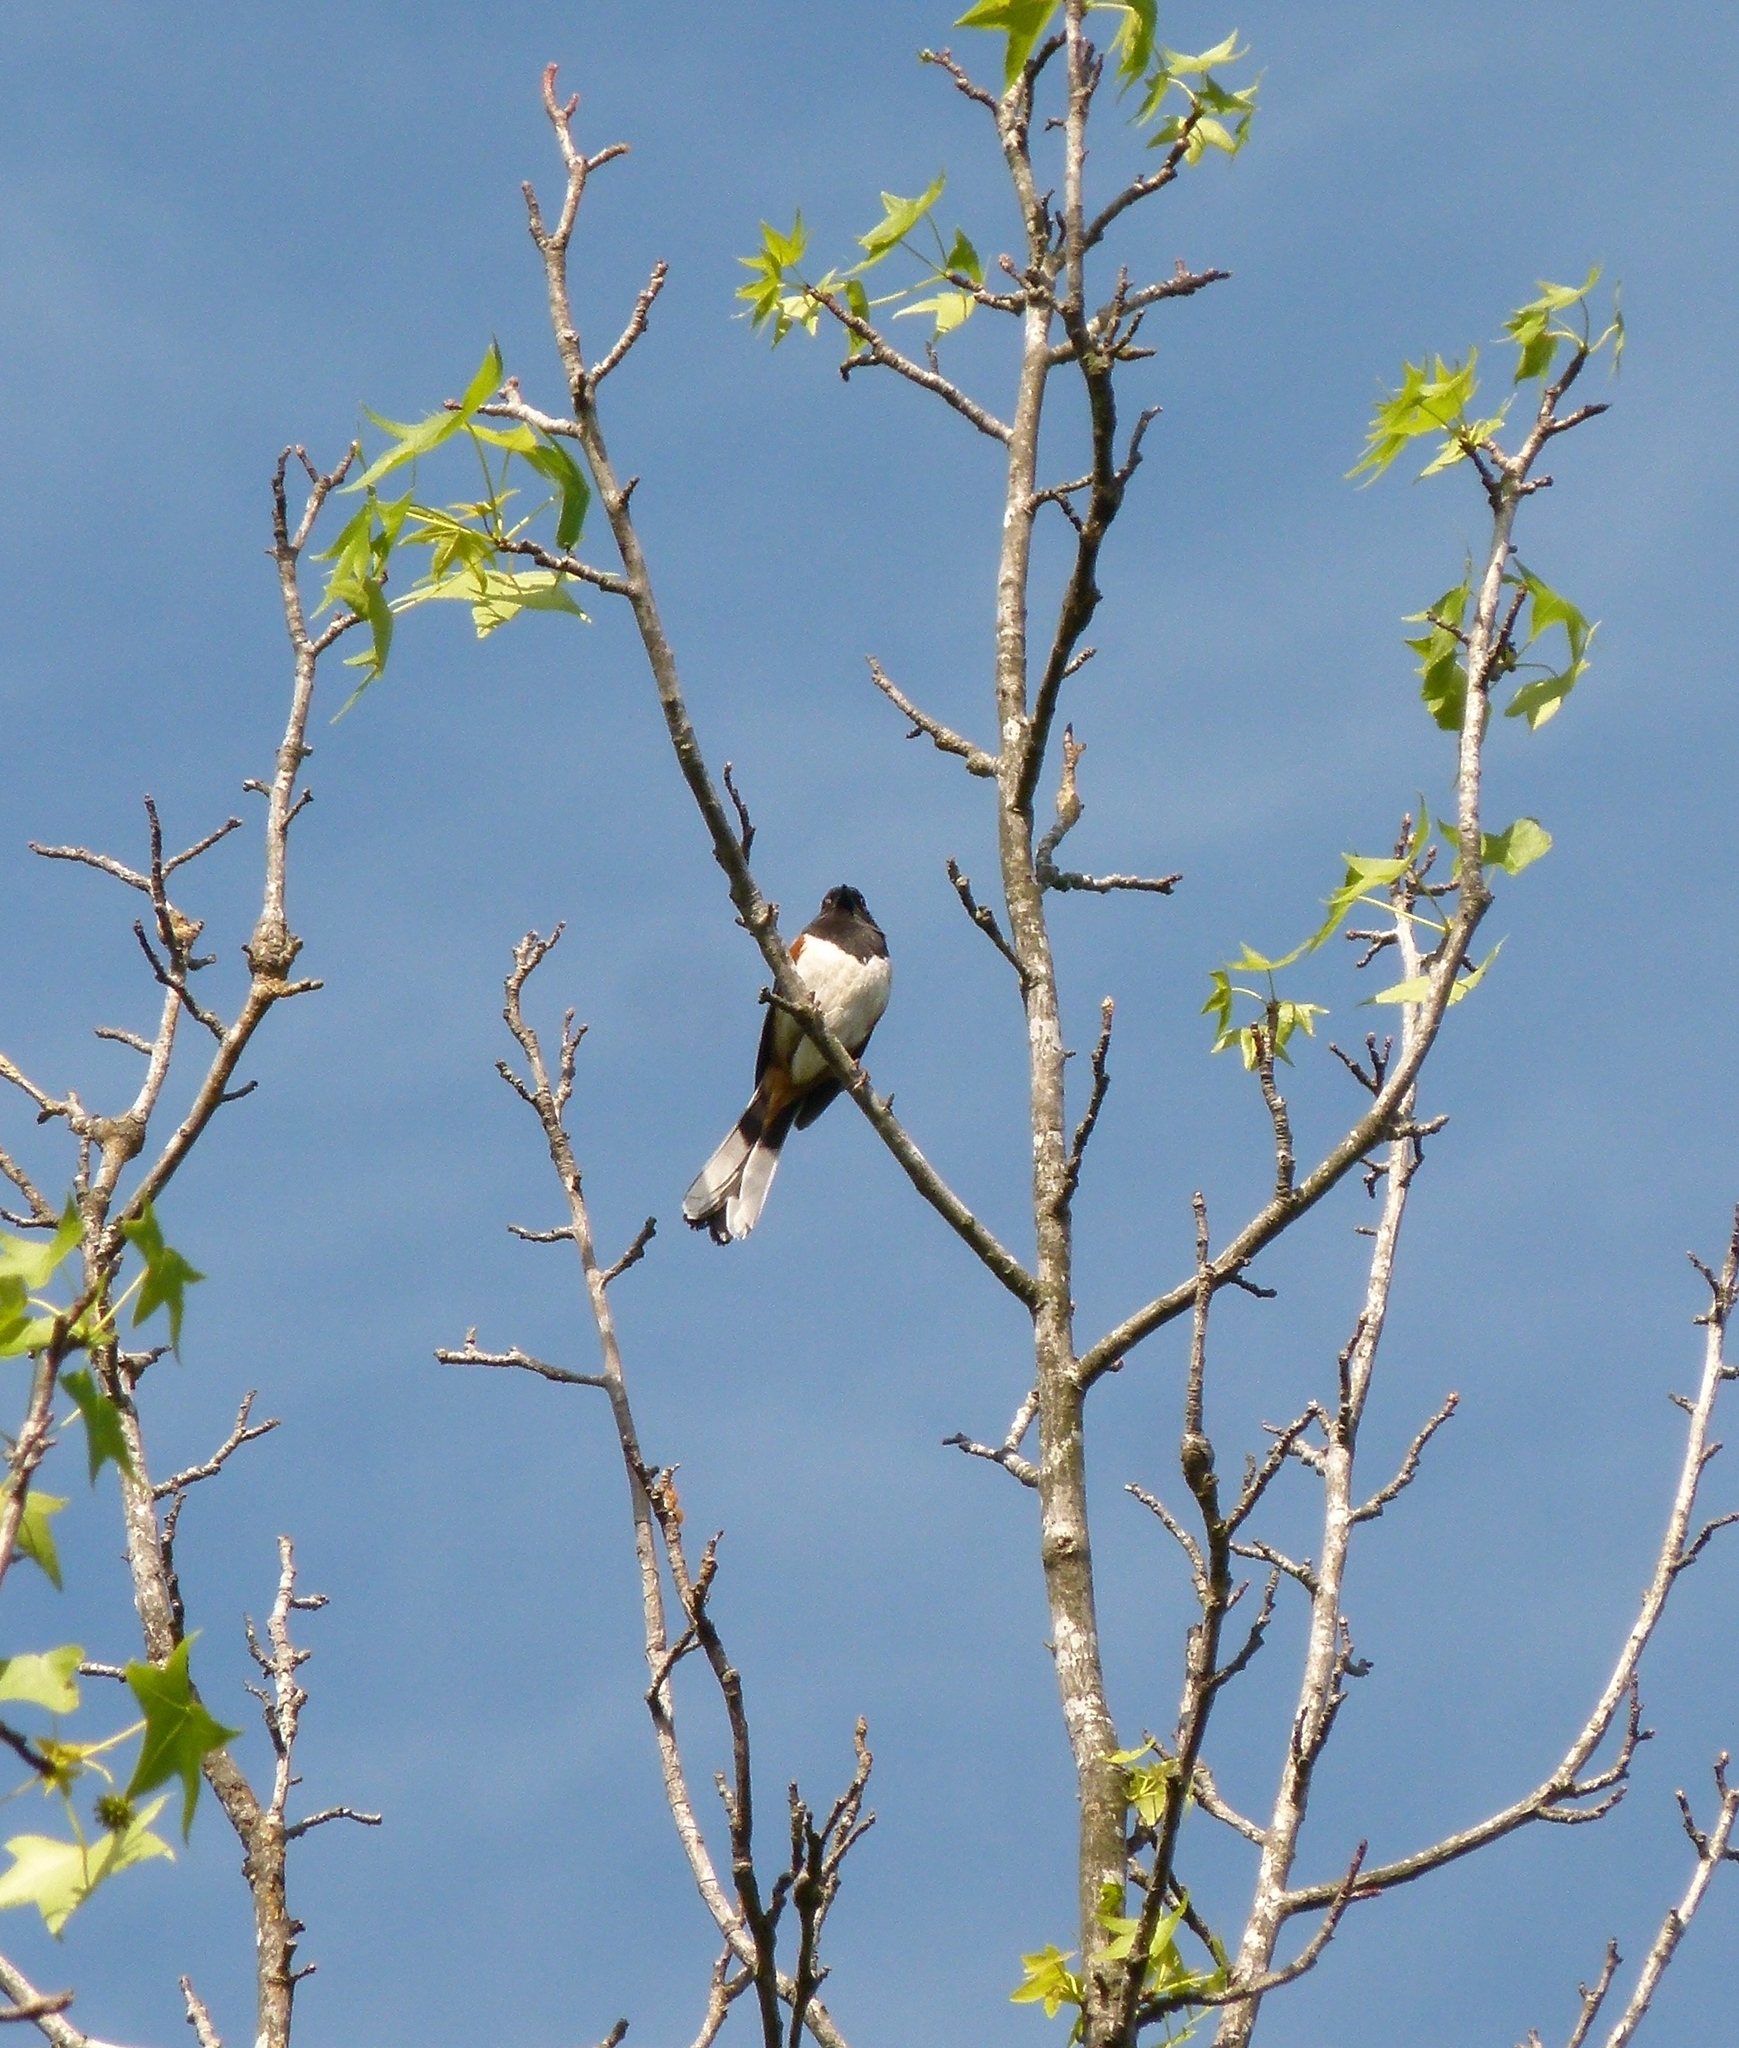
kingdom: Animalia
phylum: Chordata
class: Aves
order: Passeriformes
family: Passerellidae
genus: Pipilo
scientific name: Pipilo erythrophthalmus
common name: Eastern towhee
